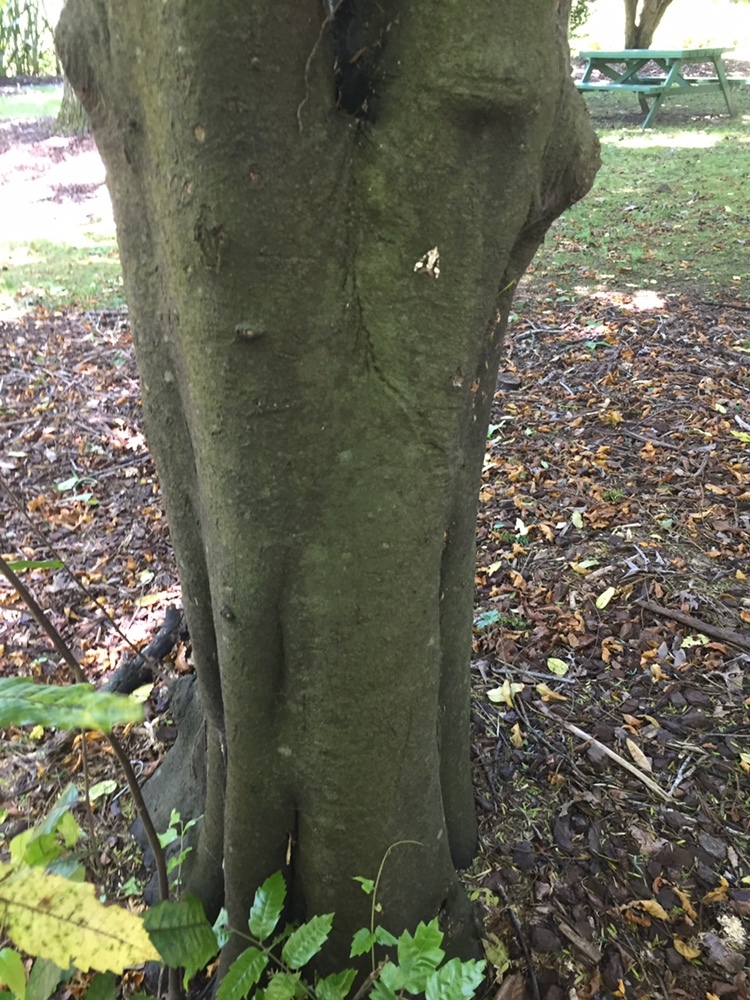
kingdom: Animalia
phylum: Arthropoda
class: Insecta
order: Lepidoptera
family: Geometridae
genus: Pseudocoremia
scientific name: Pseudocoremia leucelaea
